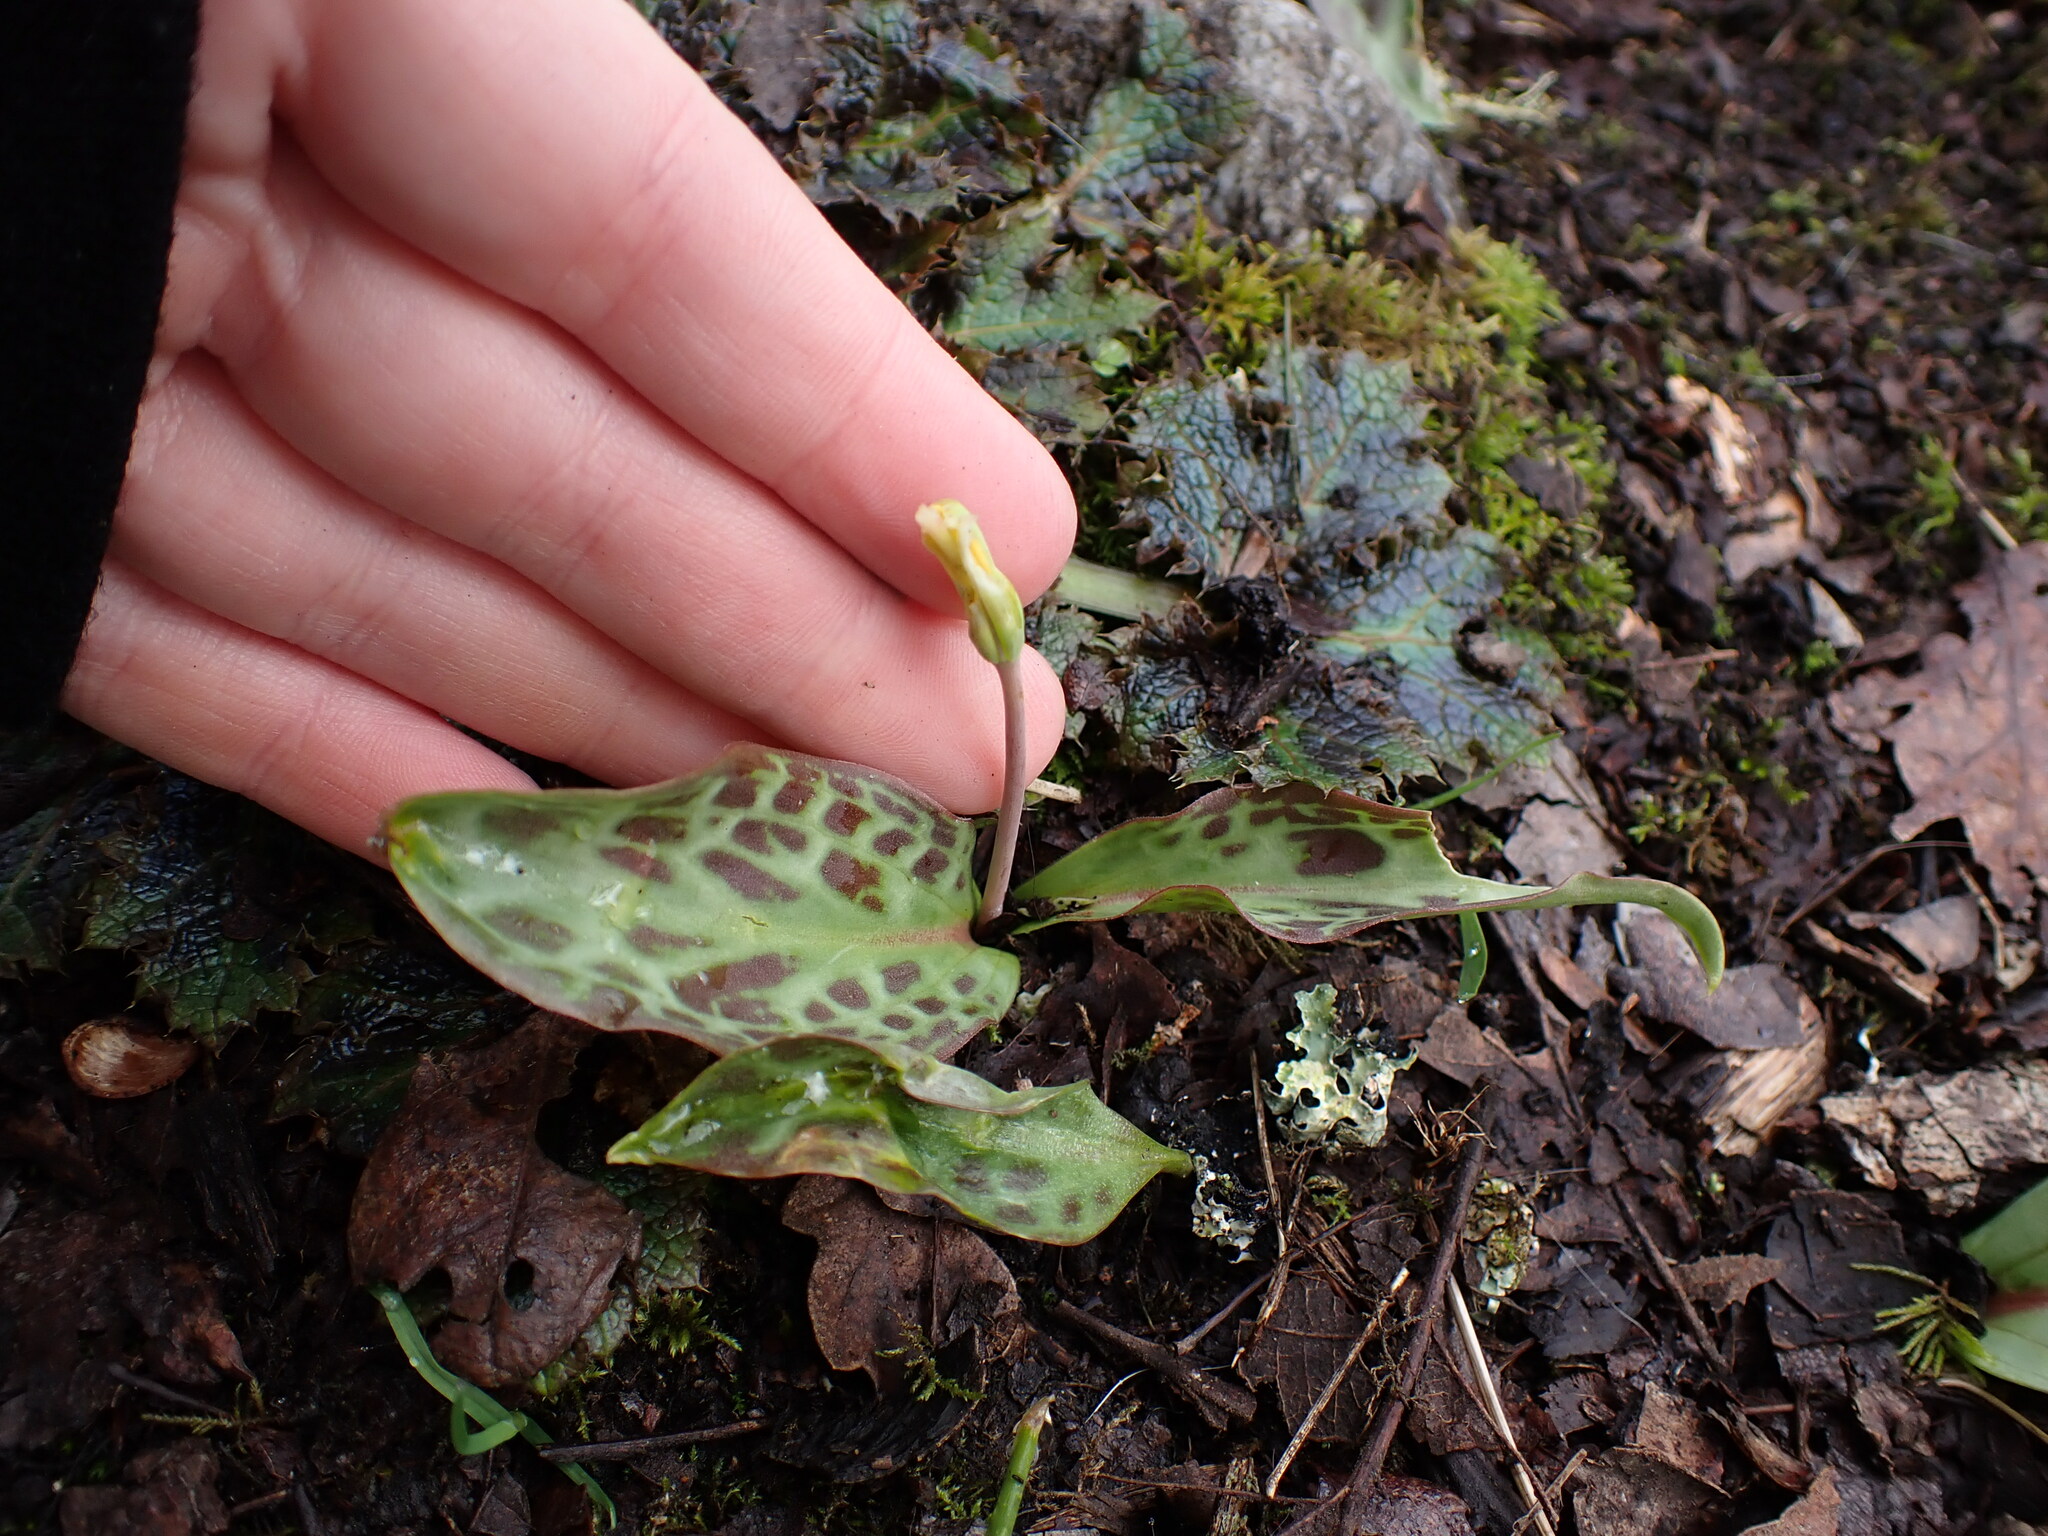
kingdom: Plantae
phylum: Tracheophyta
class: Liliopsida
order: Liliales
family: Liliaceae
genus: Erythronium
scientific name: Erythronium oregonum
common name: Giant adder's-tongue
